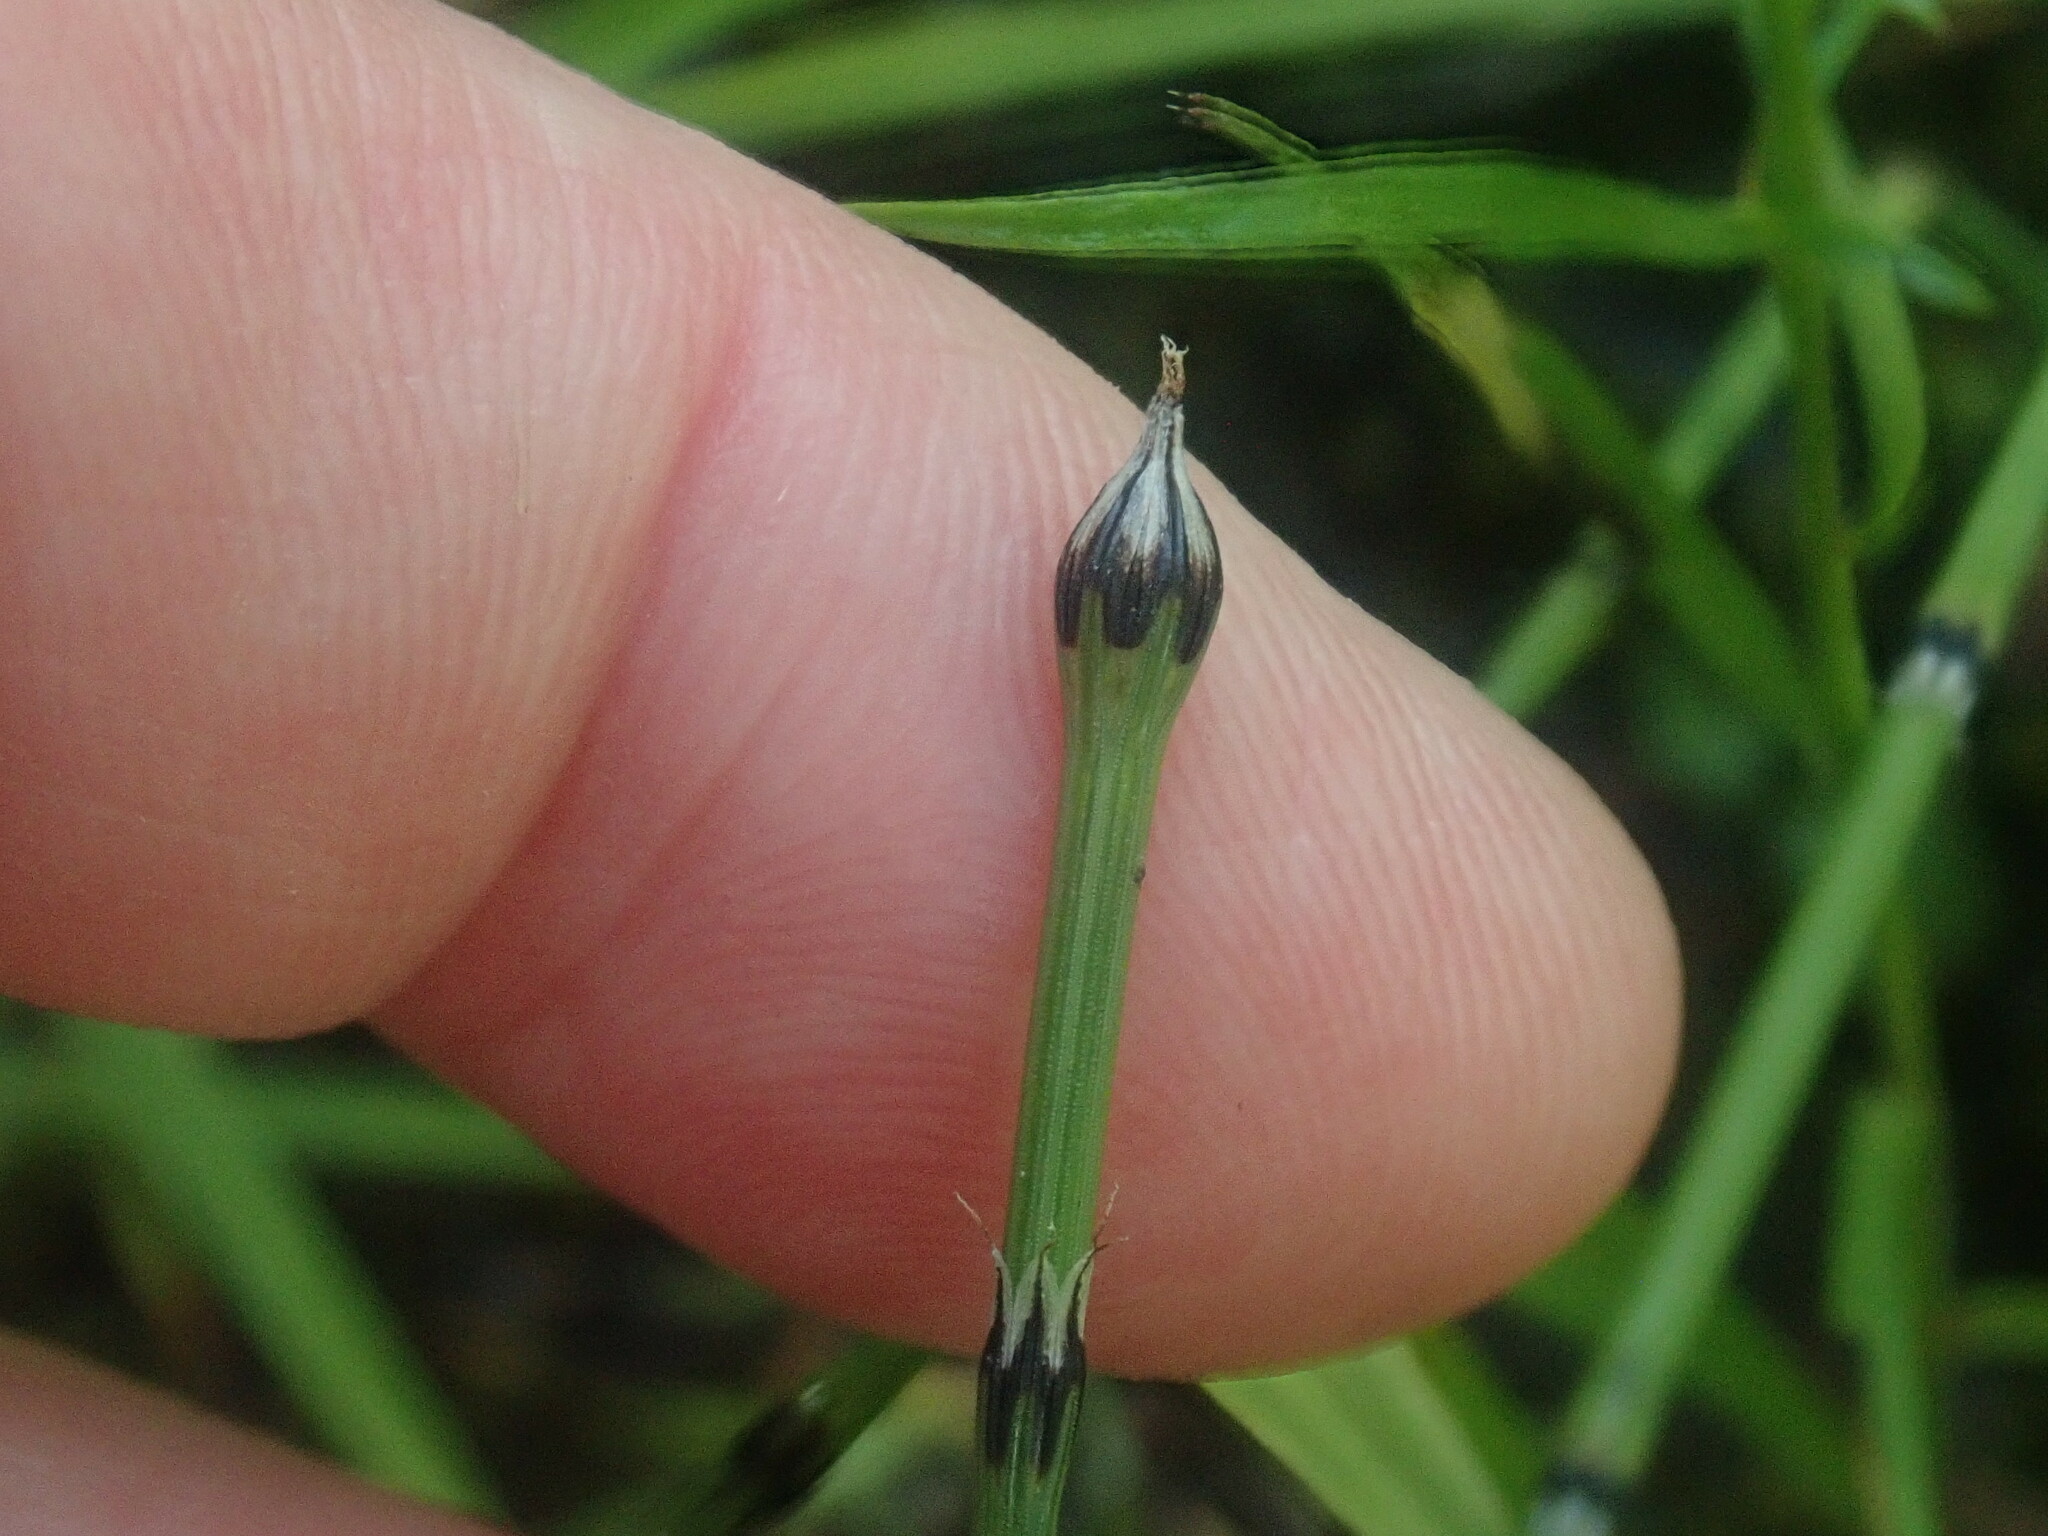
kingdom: Plantae
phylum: Tracheophyta
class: Polypodiopsida
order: Equisetales
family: Equisetaceae
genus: Equisetum
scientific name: Equisetum variegatum
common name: Variegated horsetail
